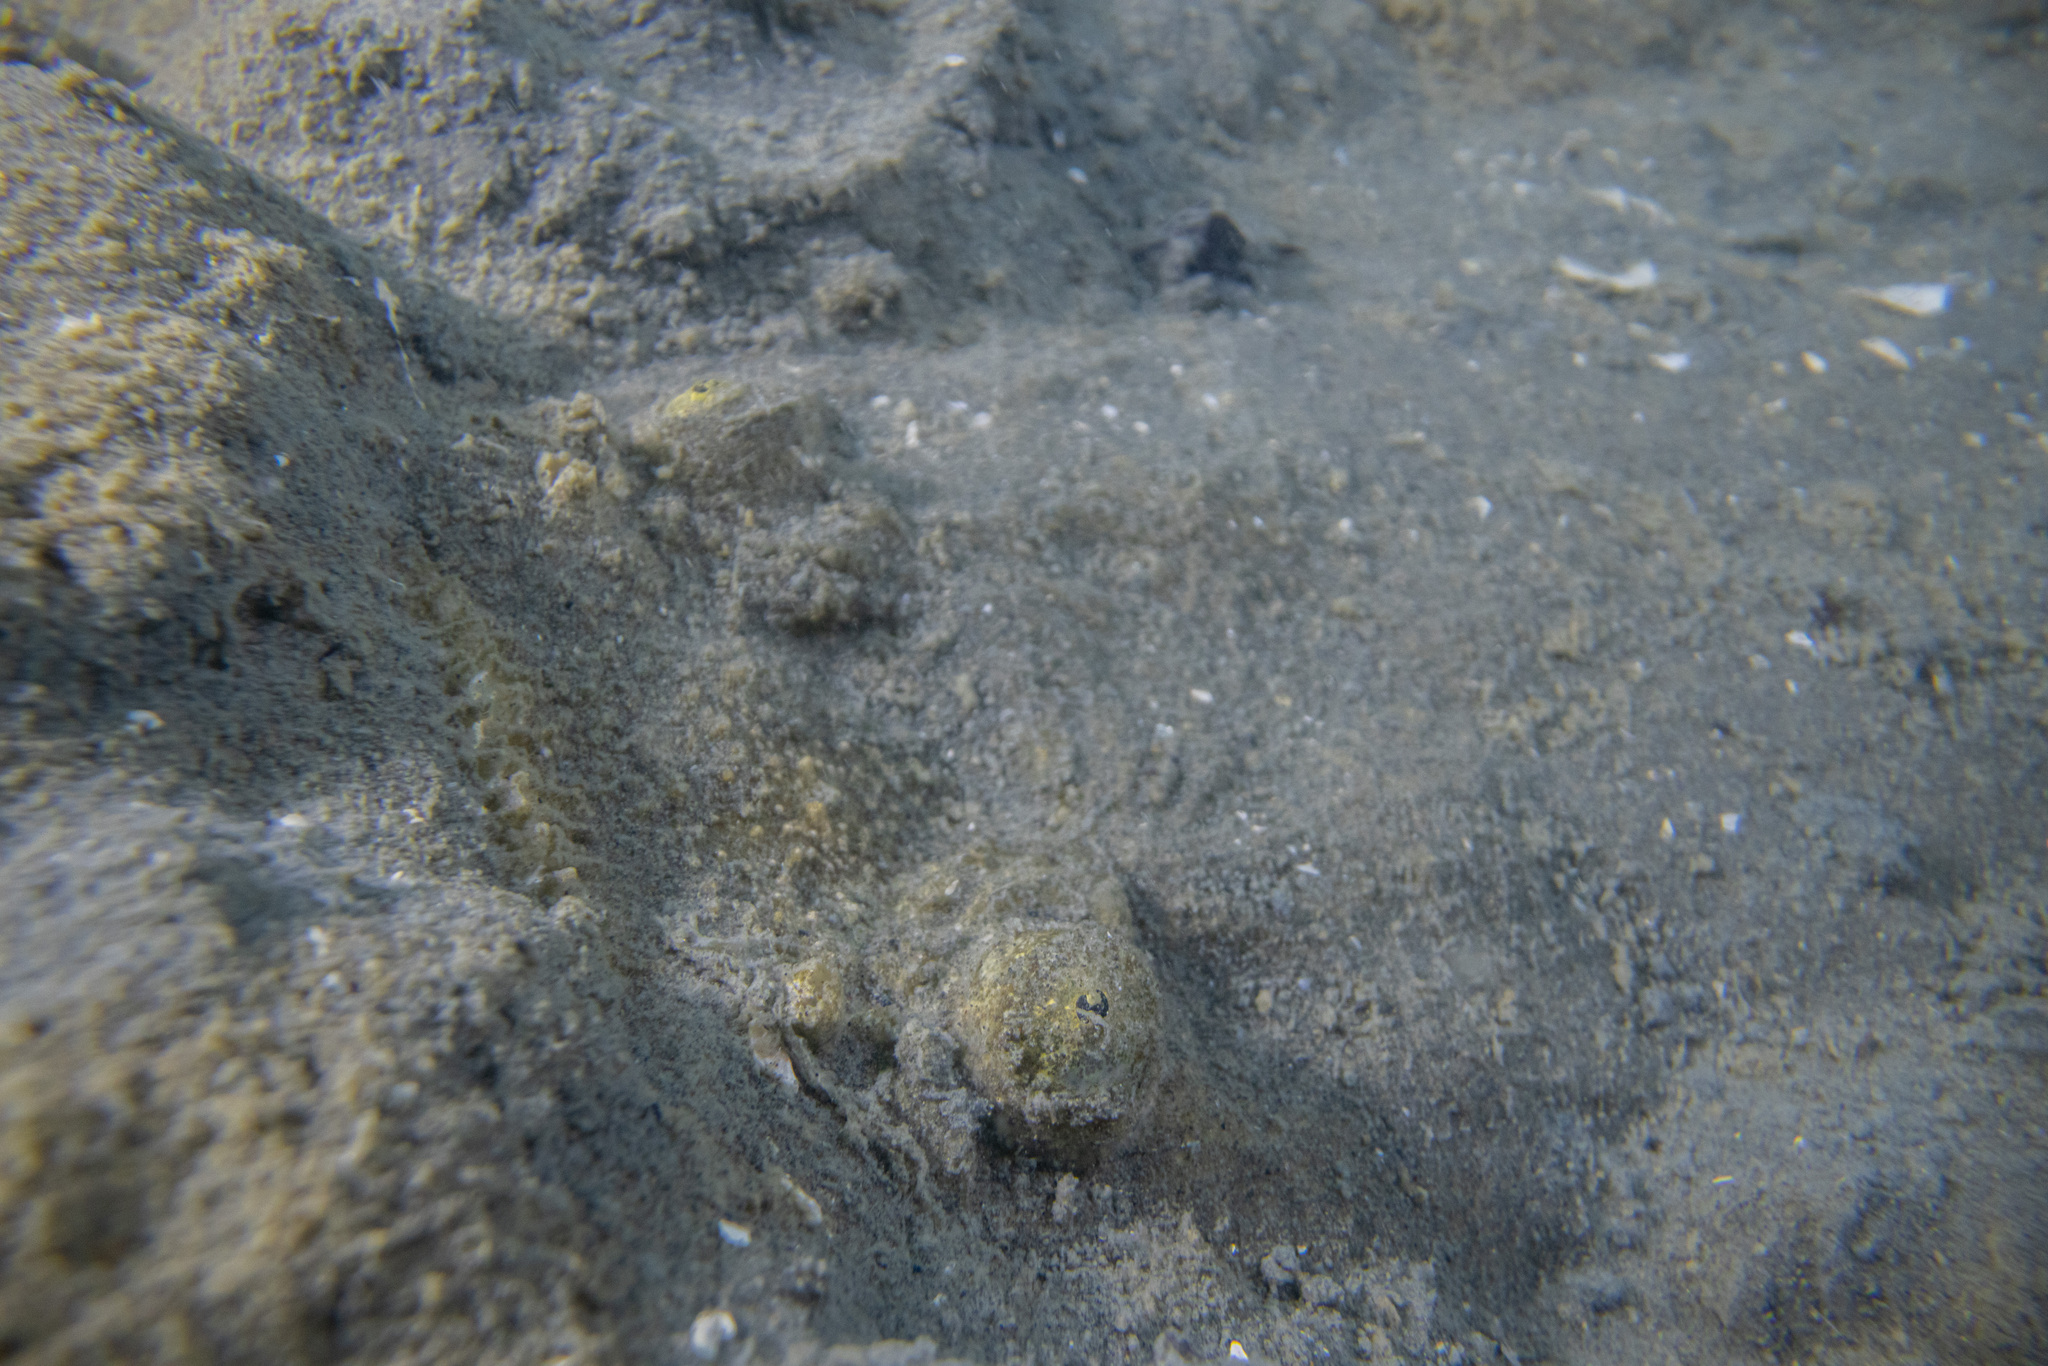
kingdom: Animalia
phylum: Chordata
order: Perciformes
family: Uranoscopidae
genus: Genyagnus
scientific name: Genyagnus monopterygius
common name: Spotted stargazer
